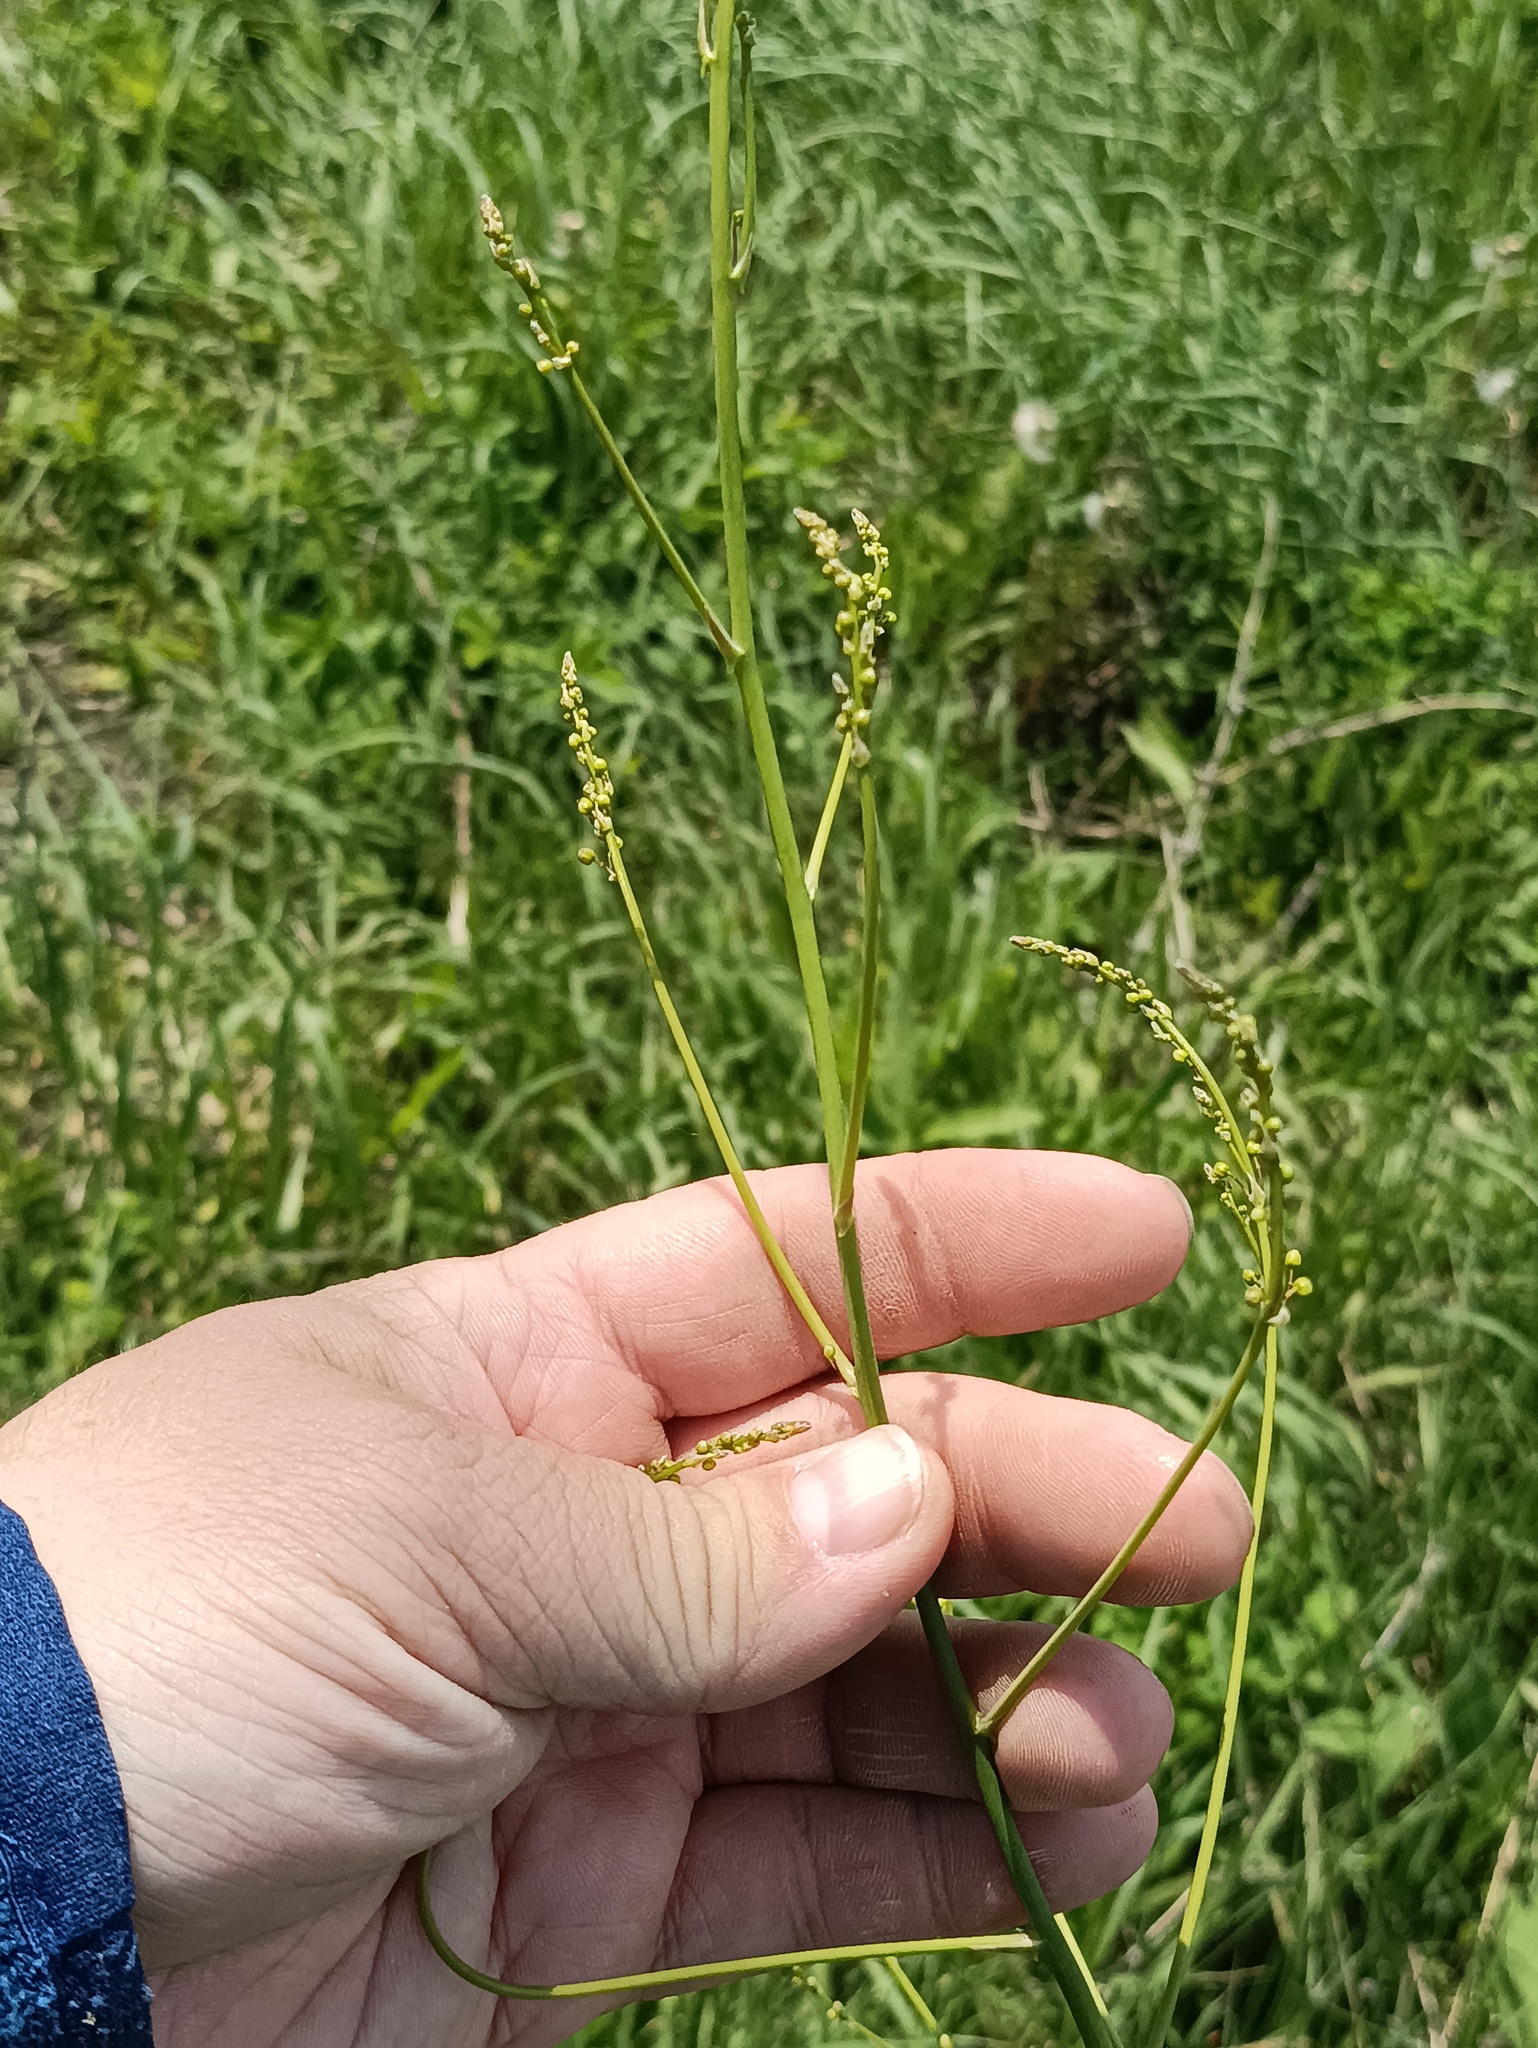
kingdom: Plantae
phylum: Tracheophyta
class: Liliopsida
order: Asparagales
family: Asparagaceae
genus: Asparagus
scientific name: Asparagus officinalis
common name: Garden asparagus
